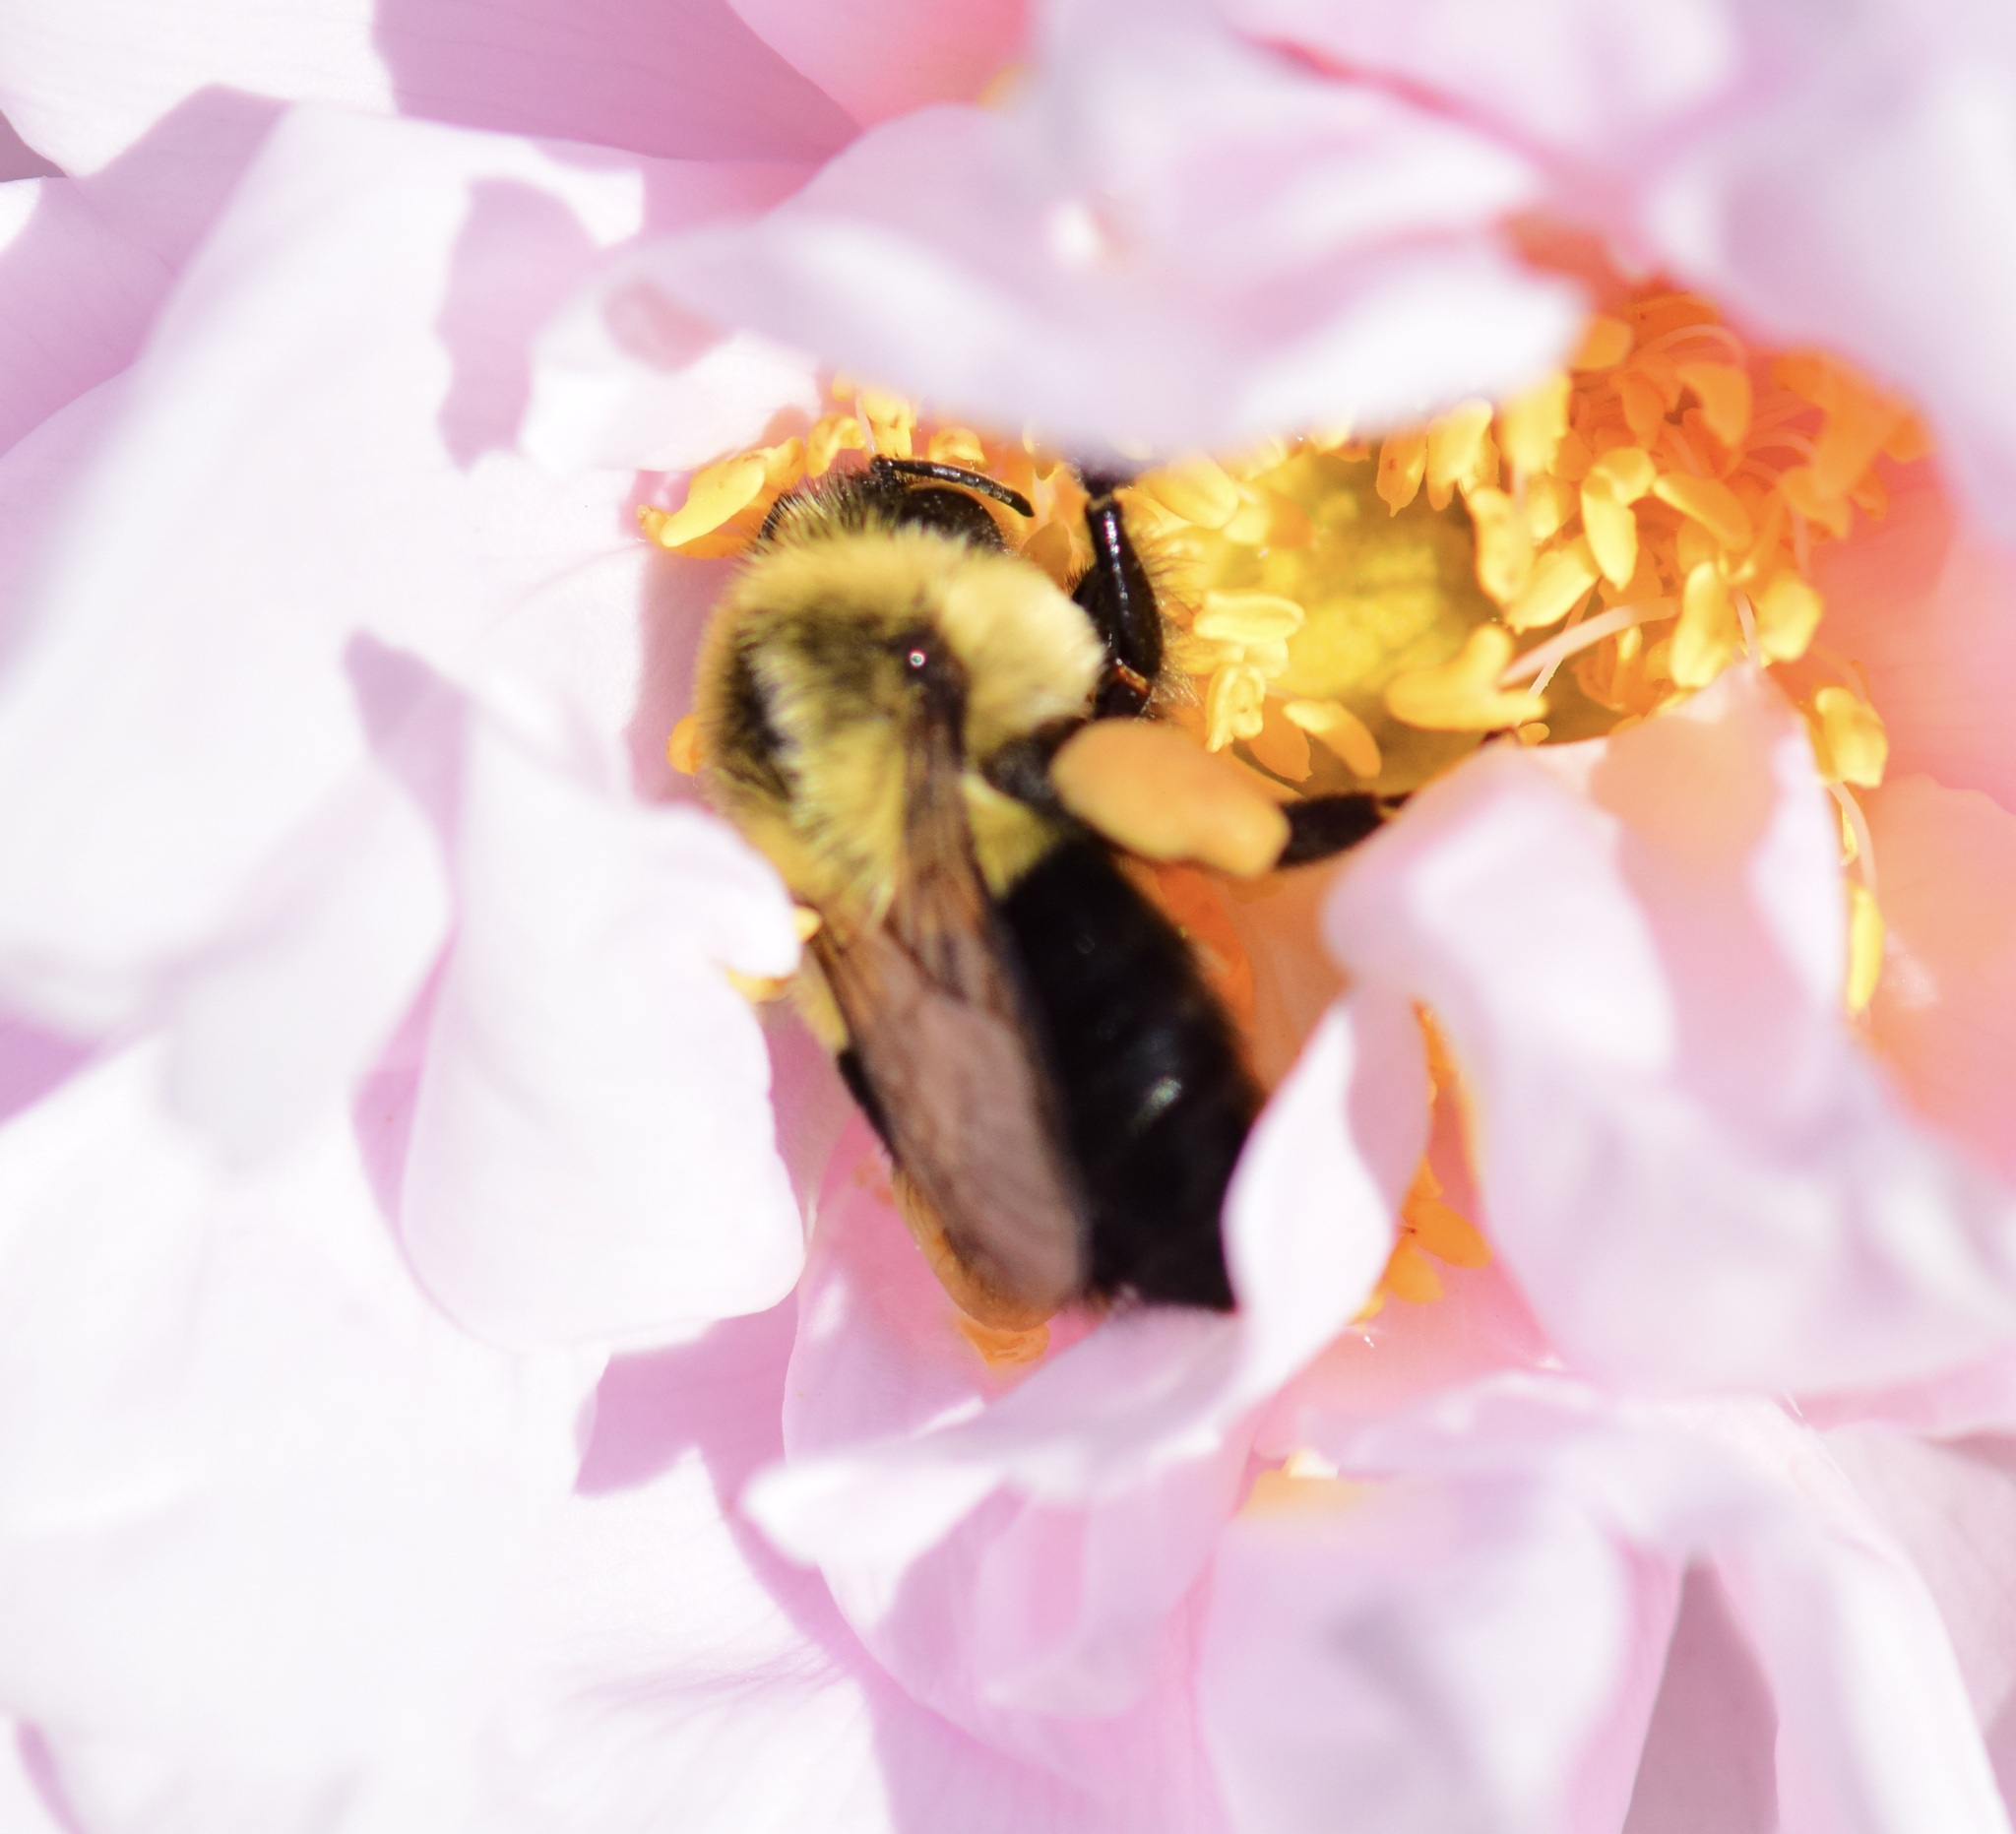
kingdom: Animalia
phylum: Arthropoda
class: Insecta
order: Hymenoptera
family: Apidae
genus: Bombus
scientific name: Bombus impatiens
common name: Common eastern bumble bee
